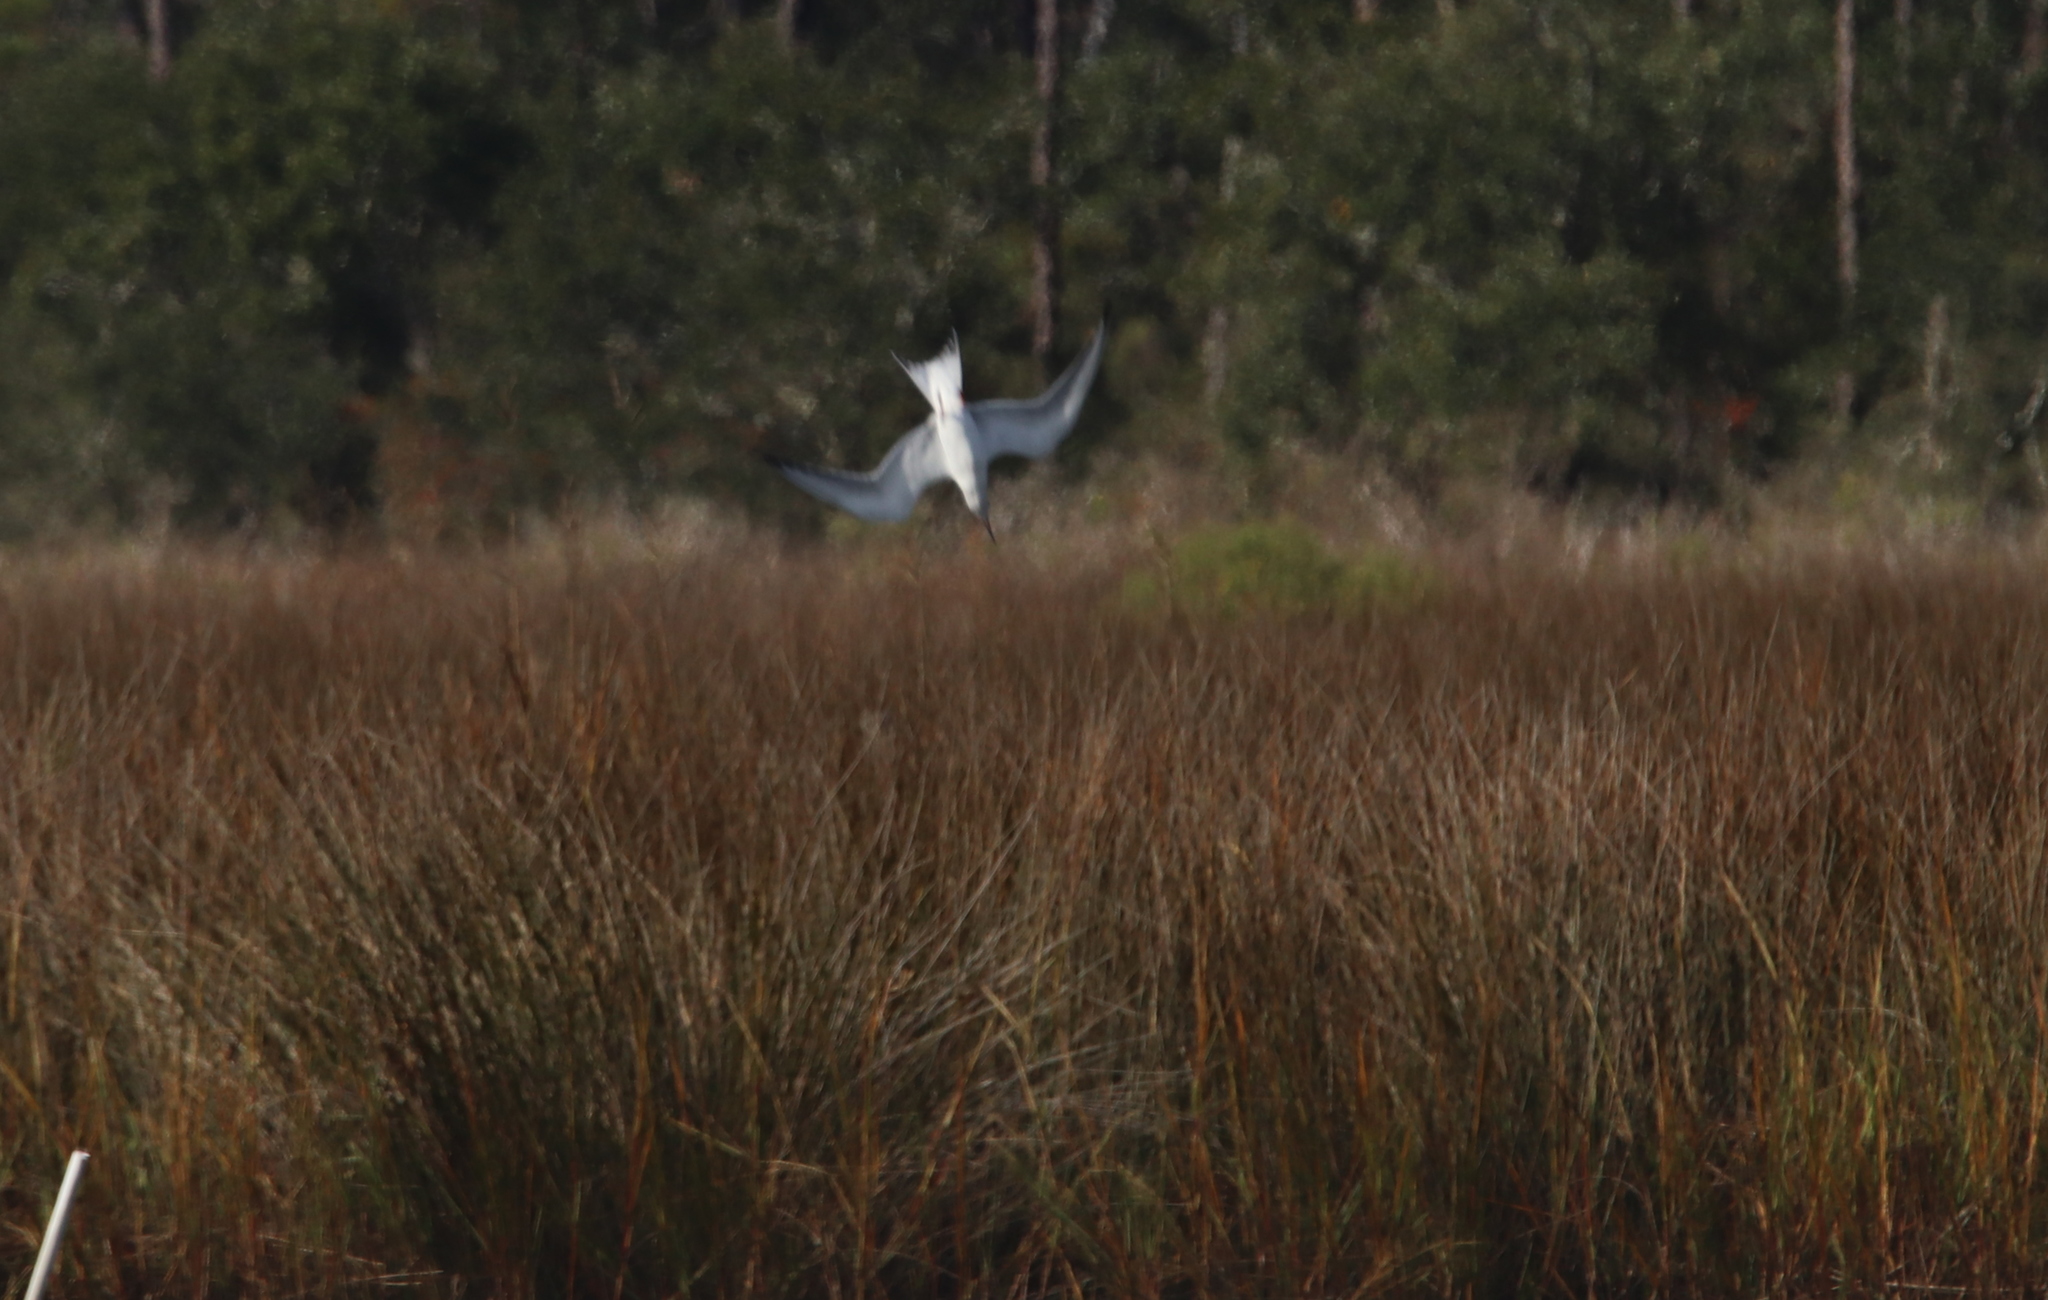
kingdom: Animalia
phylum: Chordata
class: Aves
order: Charadriiformes
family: Laridae
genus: Sterna
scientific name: Sterna forsteri
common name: Forster's tern
